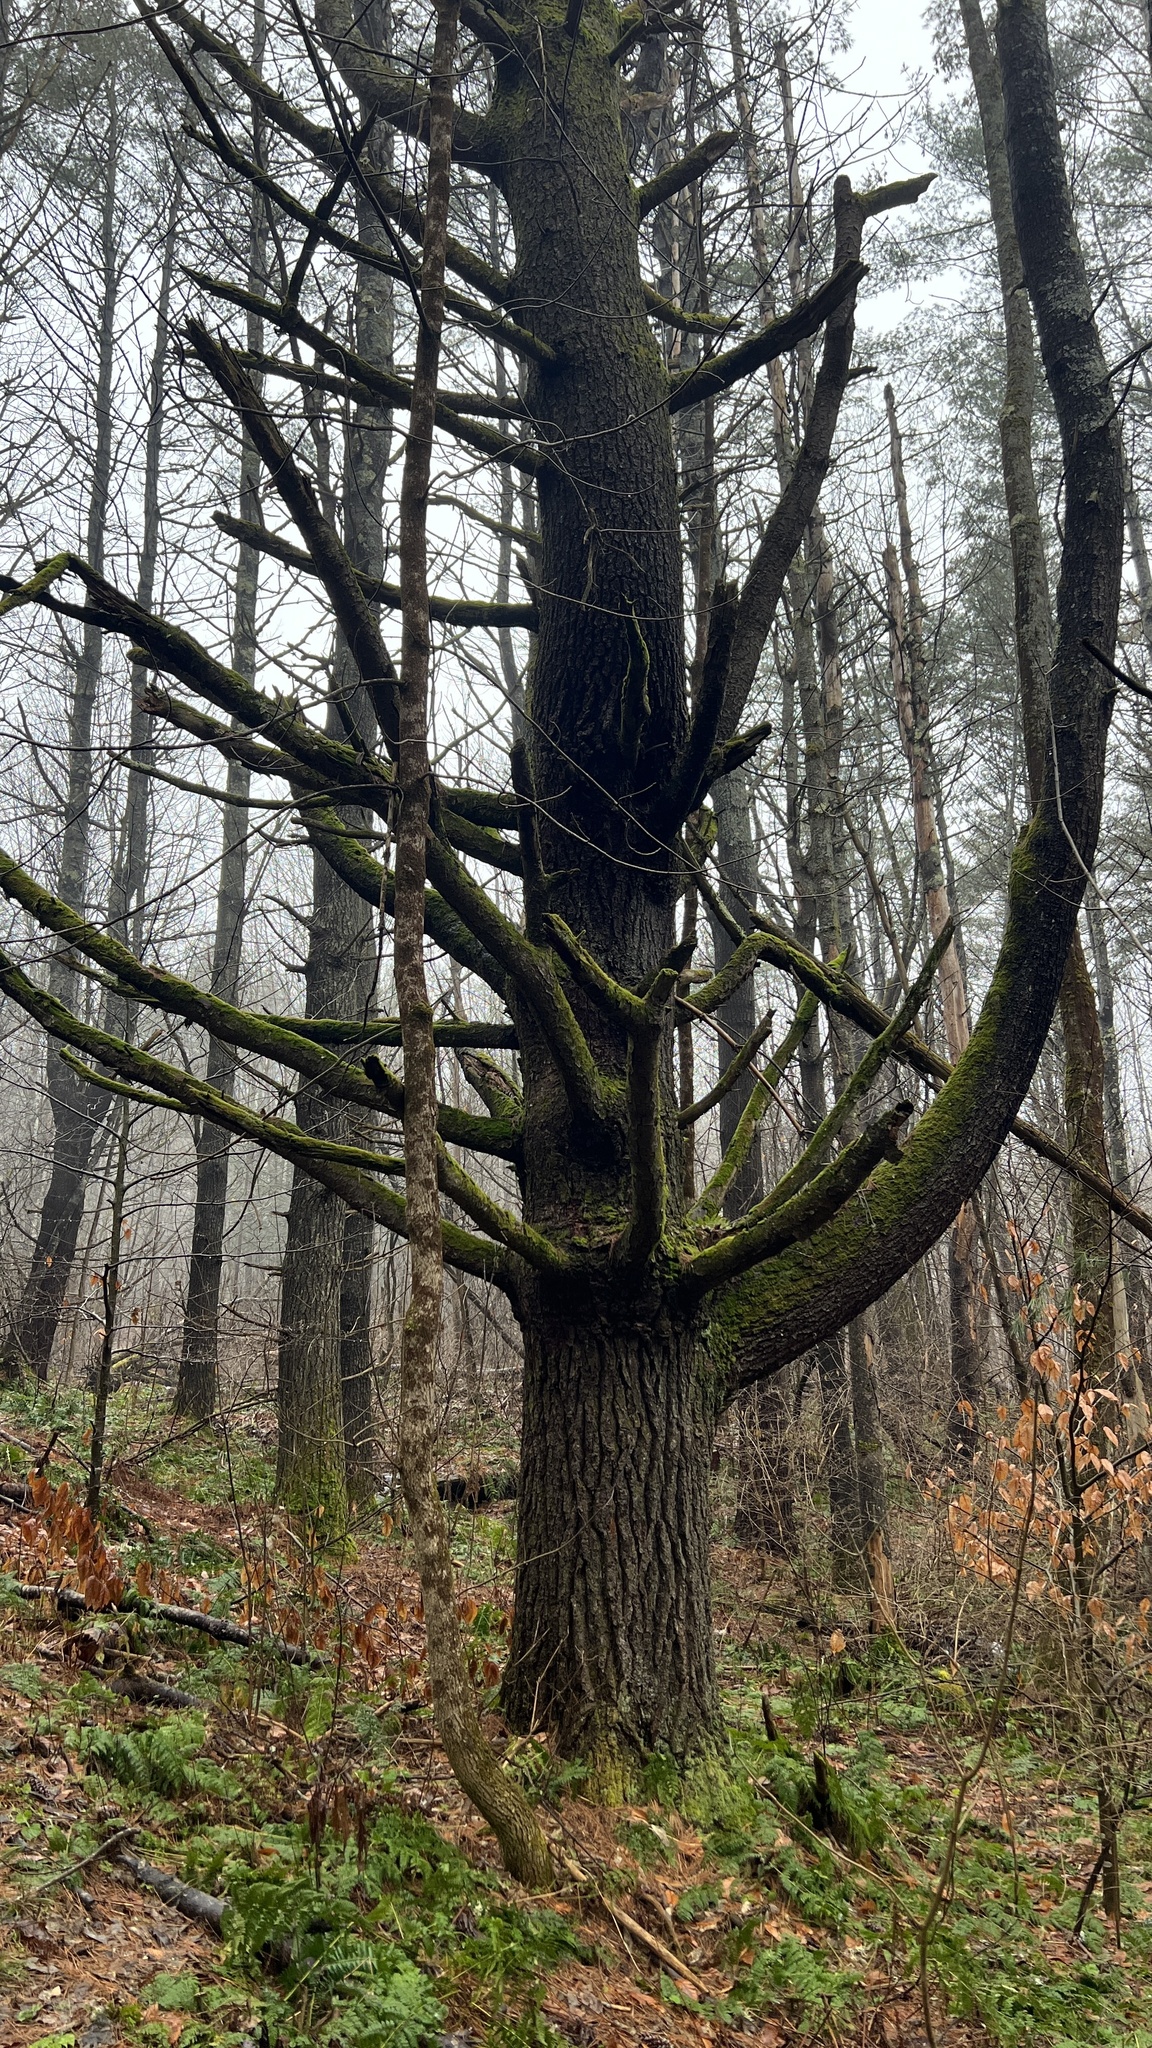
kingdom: Plantae
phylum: Tracheophyta
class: Pinopsida
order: Pinales
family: Pinaceae
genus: Pinus
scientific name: Pinus strobus
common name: Weymouth pine
